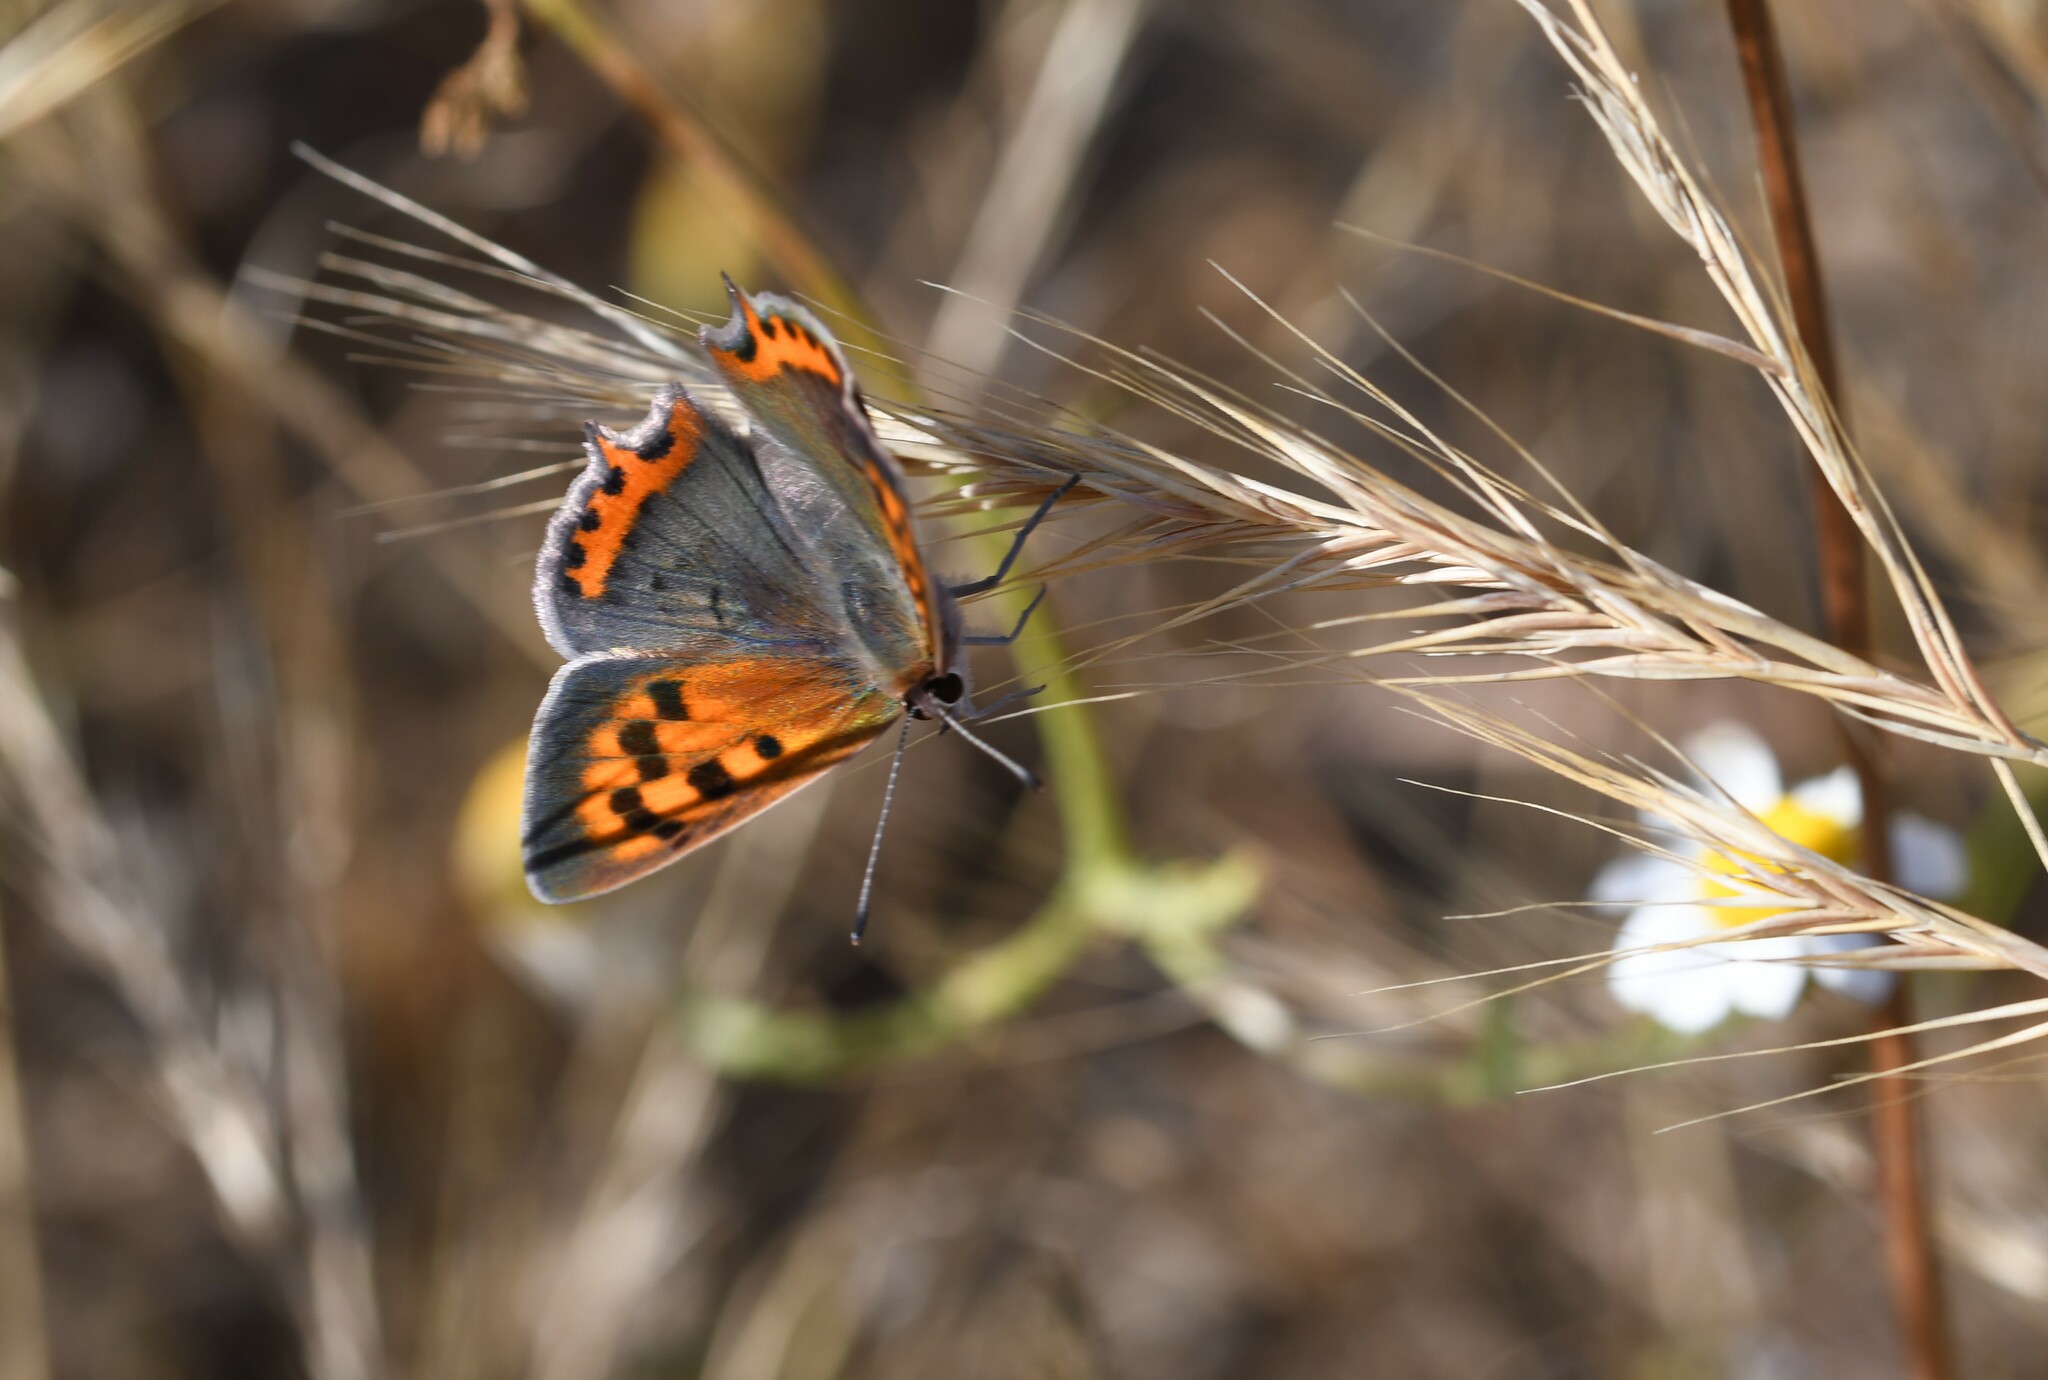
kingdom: Animalia
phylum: Arthropoda
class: Insecta
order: Lepidoptera
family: Lycaenidae
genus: Lycaena
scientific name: Lycaena phlaeas
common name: Small copper
